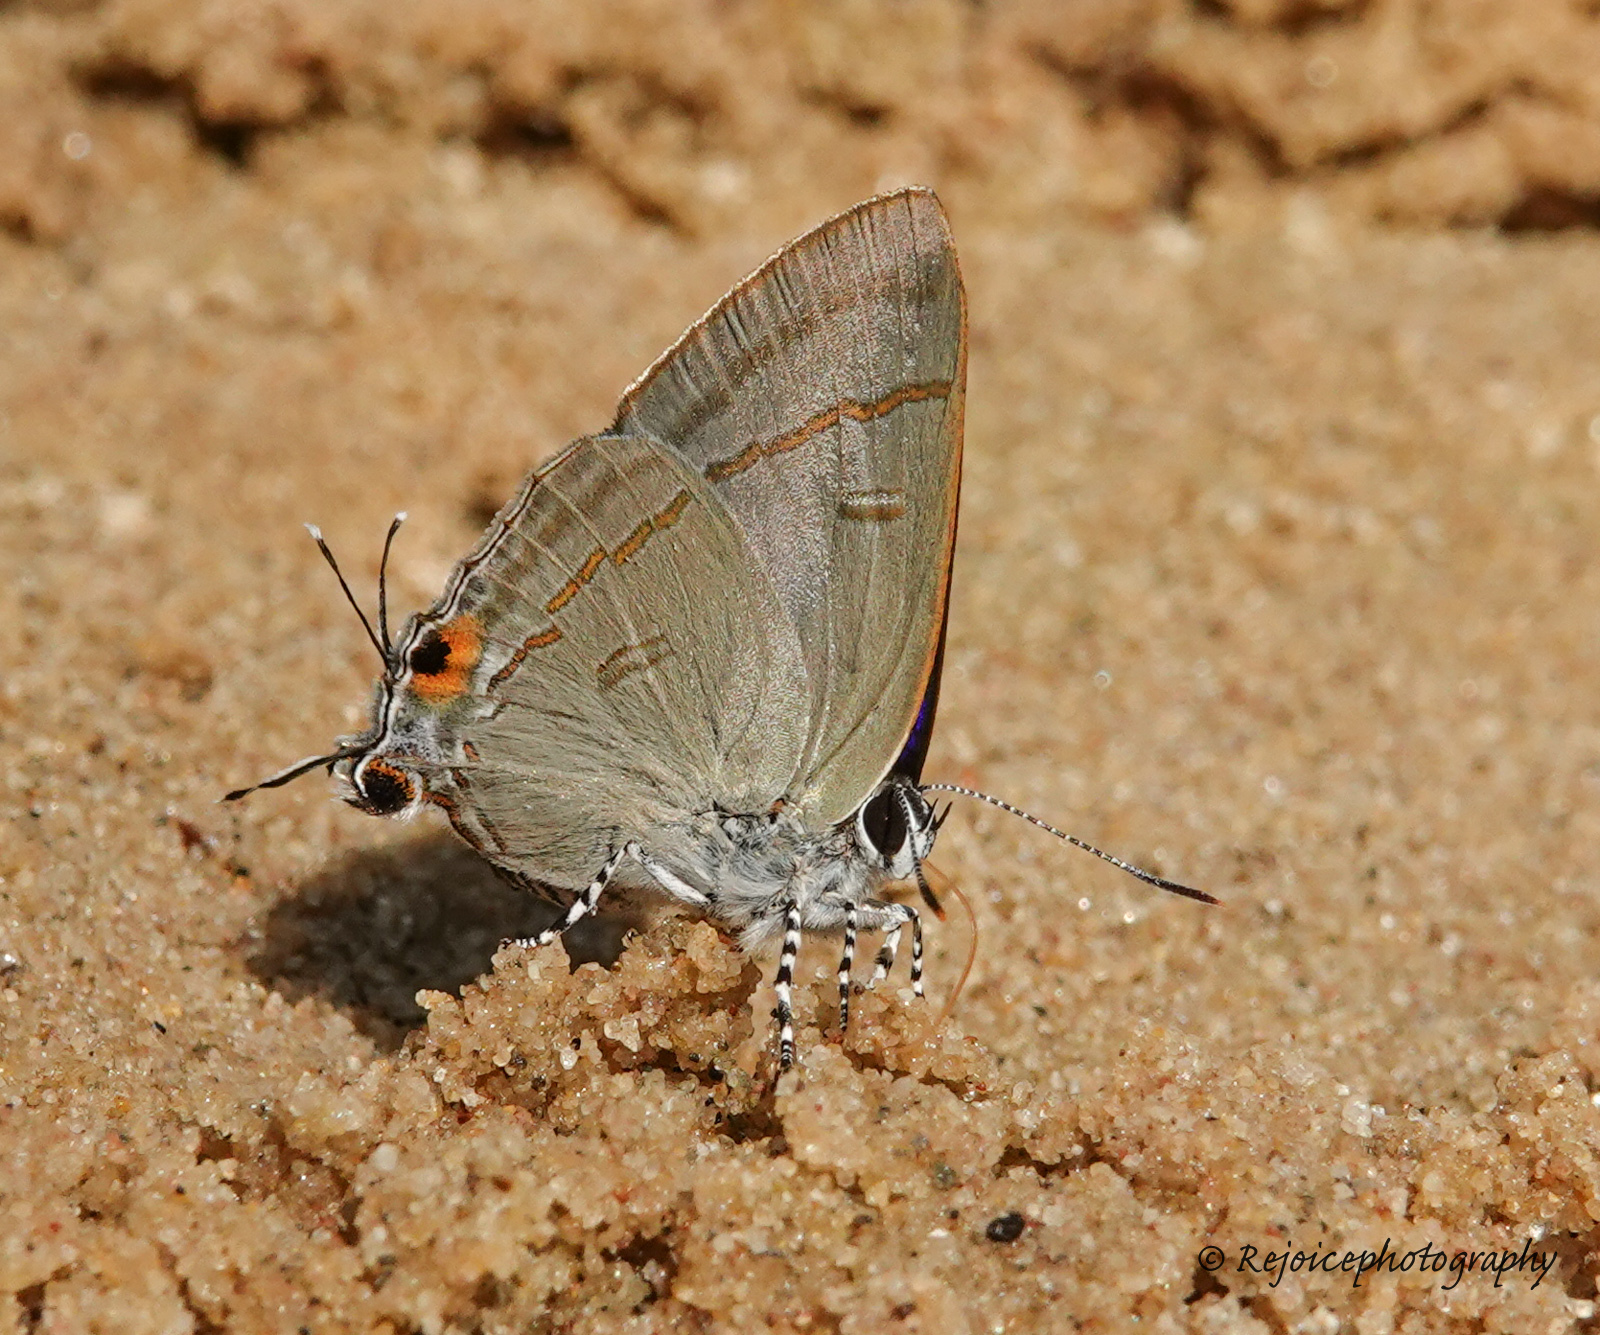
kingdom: Animalia
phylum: Arthropoda
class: Insecta
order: Lepidoptera
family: Lycaenidae
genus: Hypolycaena
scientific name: Hypolycaena erylus
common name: Common tit
